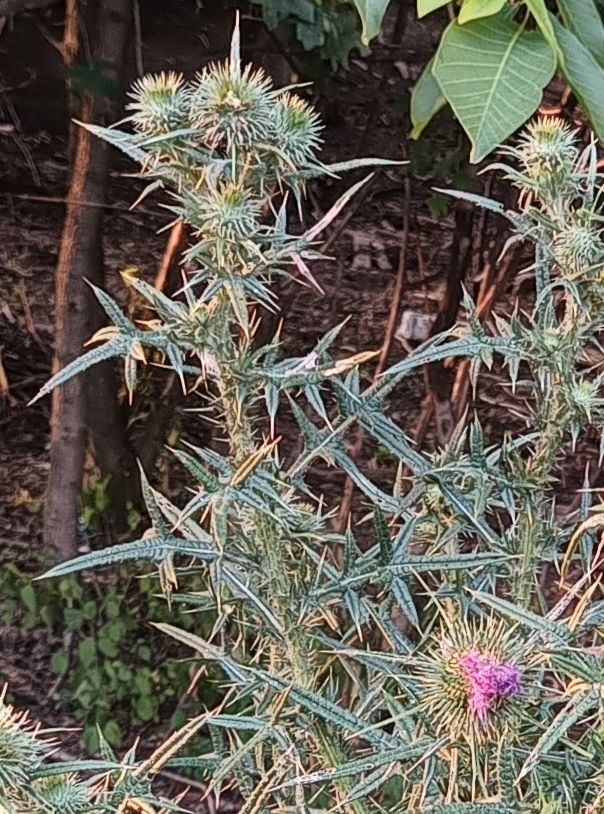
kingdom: Plantae
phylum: Tracheophyta
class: Magnoliopsida
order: Asterales
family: Asteraceae
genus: Cirsium
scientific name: Cirsium vulgare
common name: Bull thistle
